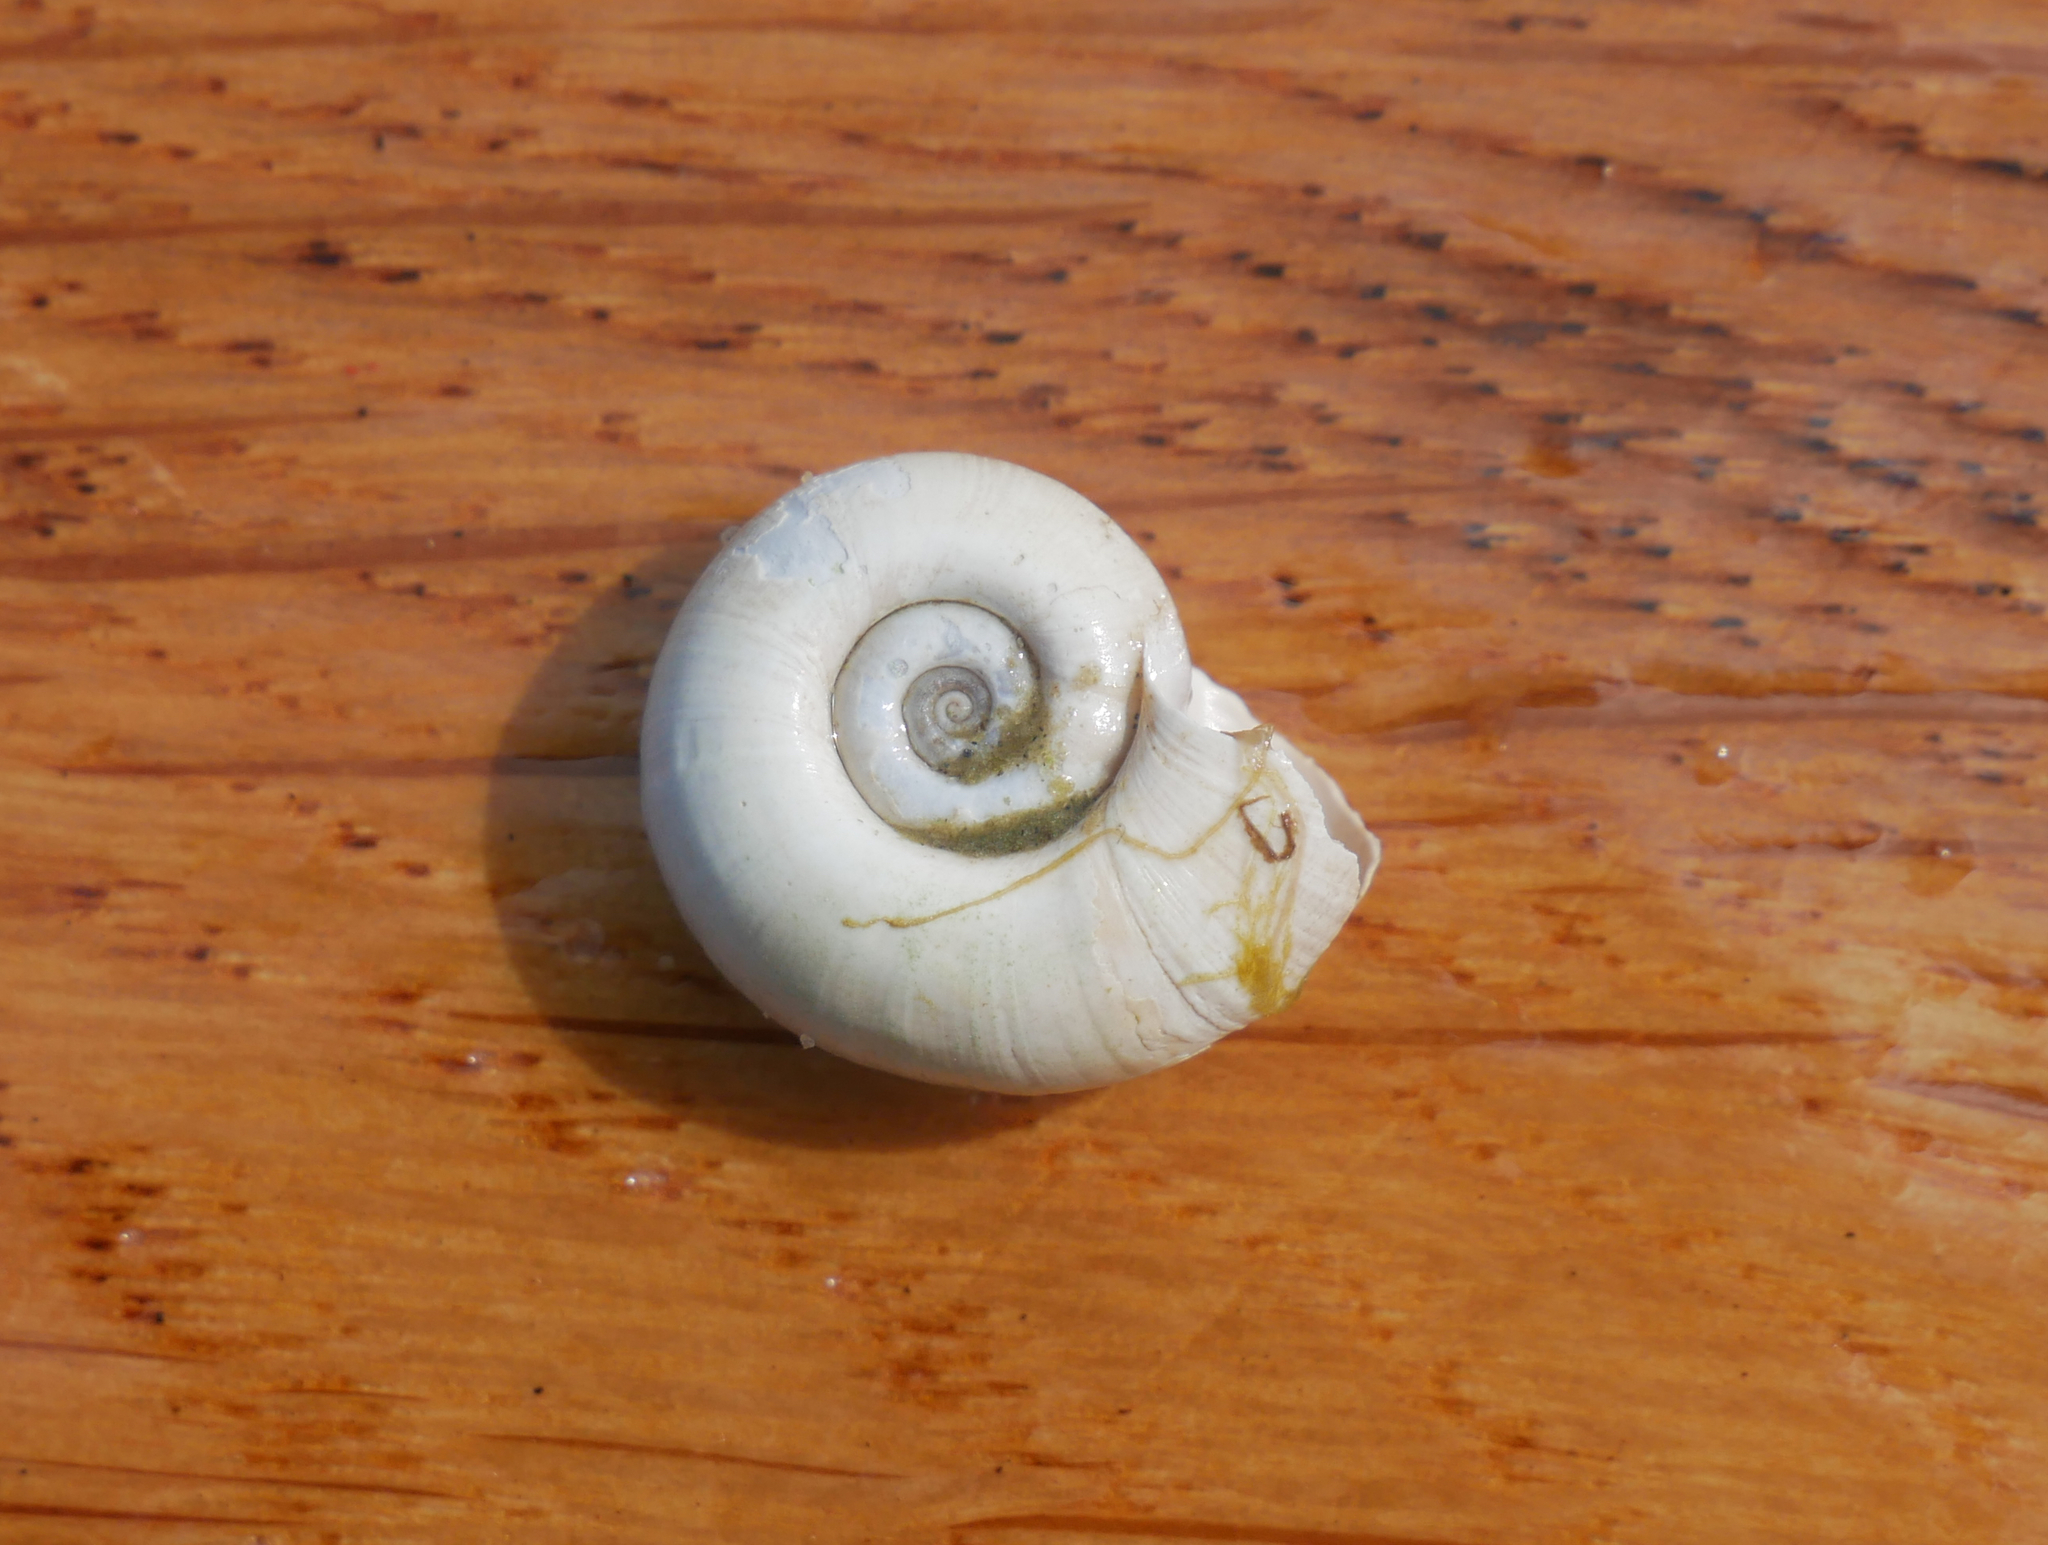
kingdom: Animalia
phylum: Mollusca
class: Gastropoda
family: Planorbidae
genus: Planorbarius
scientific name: Planorbarius corneus
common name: Great ramshorn
